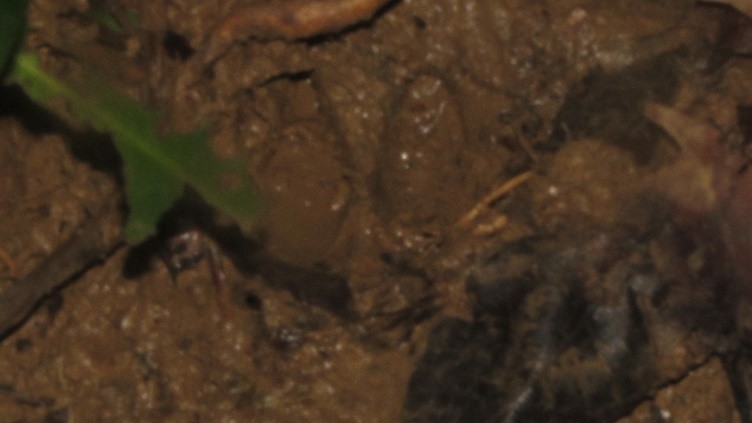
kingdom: Animalia
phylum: Chordata
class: Mammalia
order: Artiodactyla
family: Tayassuidae
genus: Pecari
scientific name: Pecari tajacu
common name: Collared peccary
